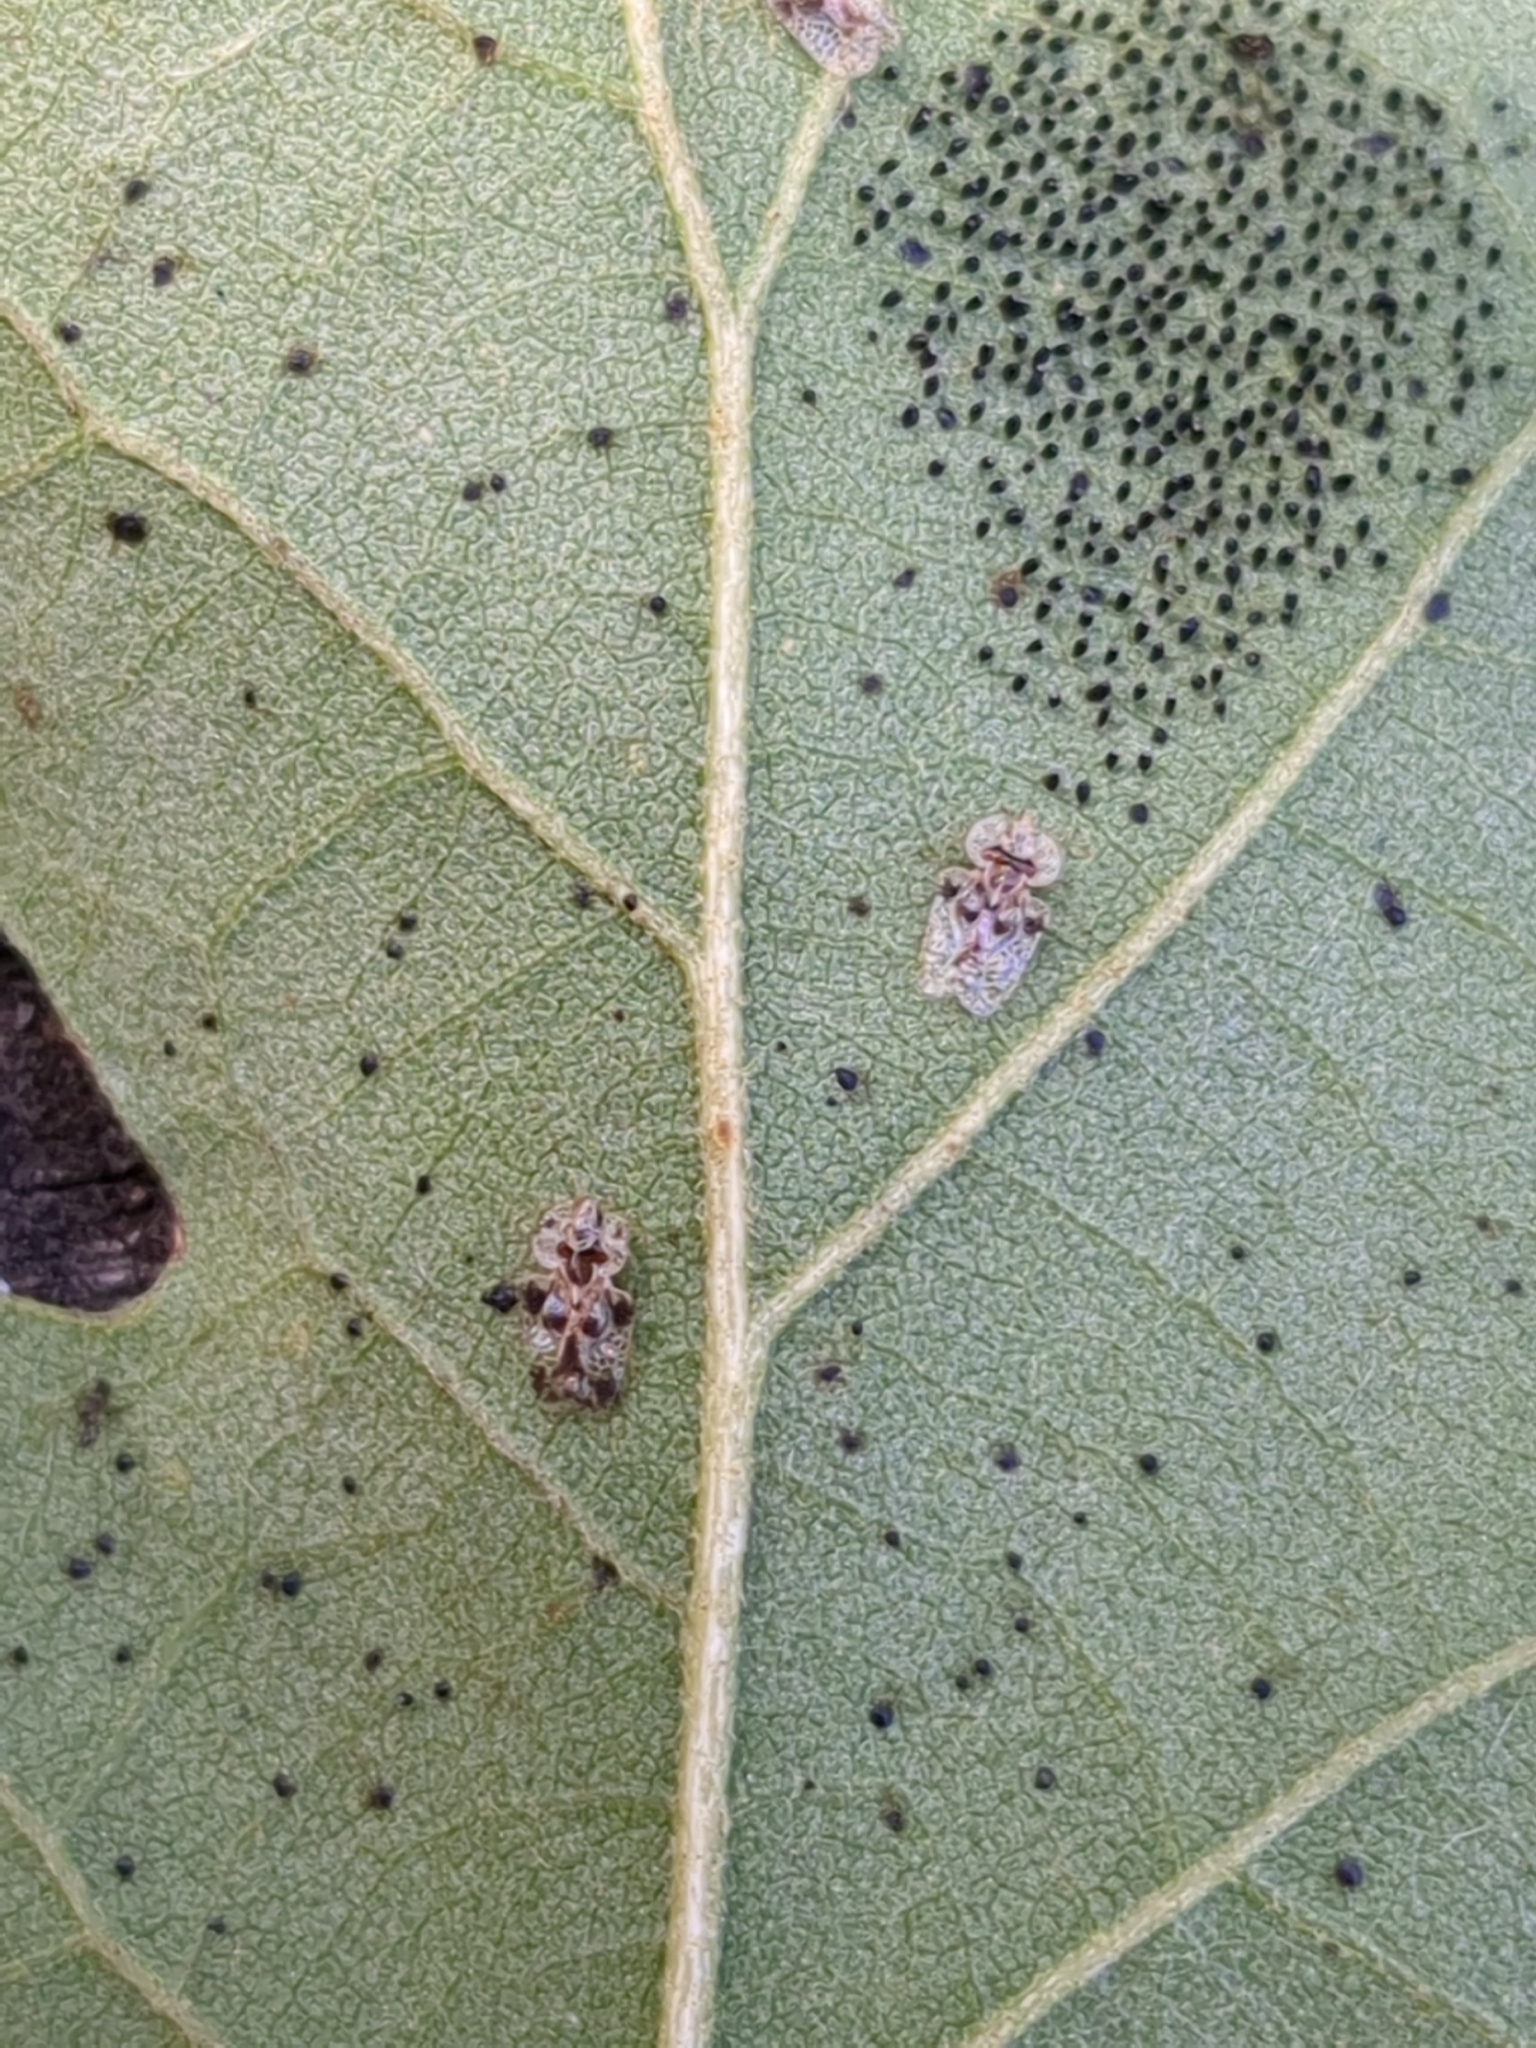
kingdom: Animalia
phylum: Arthropoda
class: Insecta
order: Hemiptera
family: Tingidae
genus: Corythucha
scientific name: Corythucha arcuata
